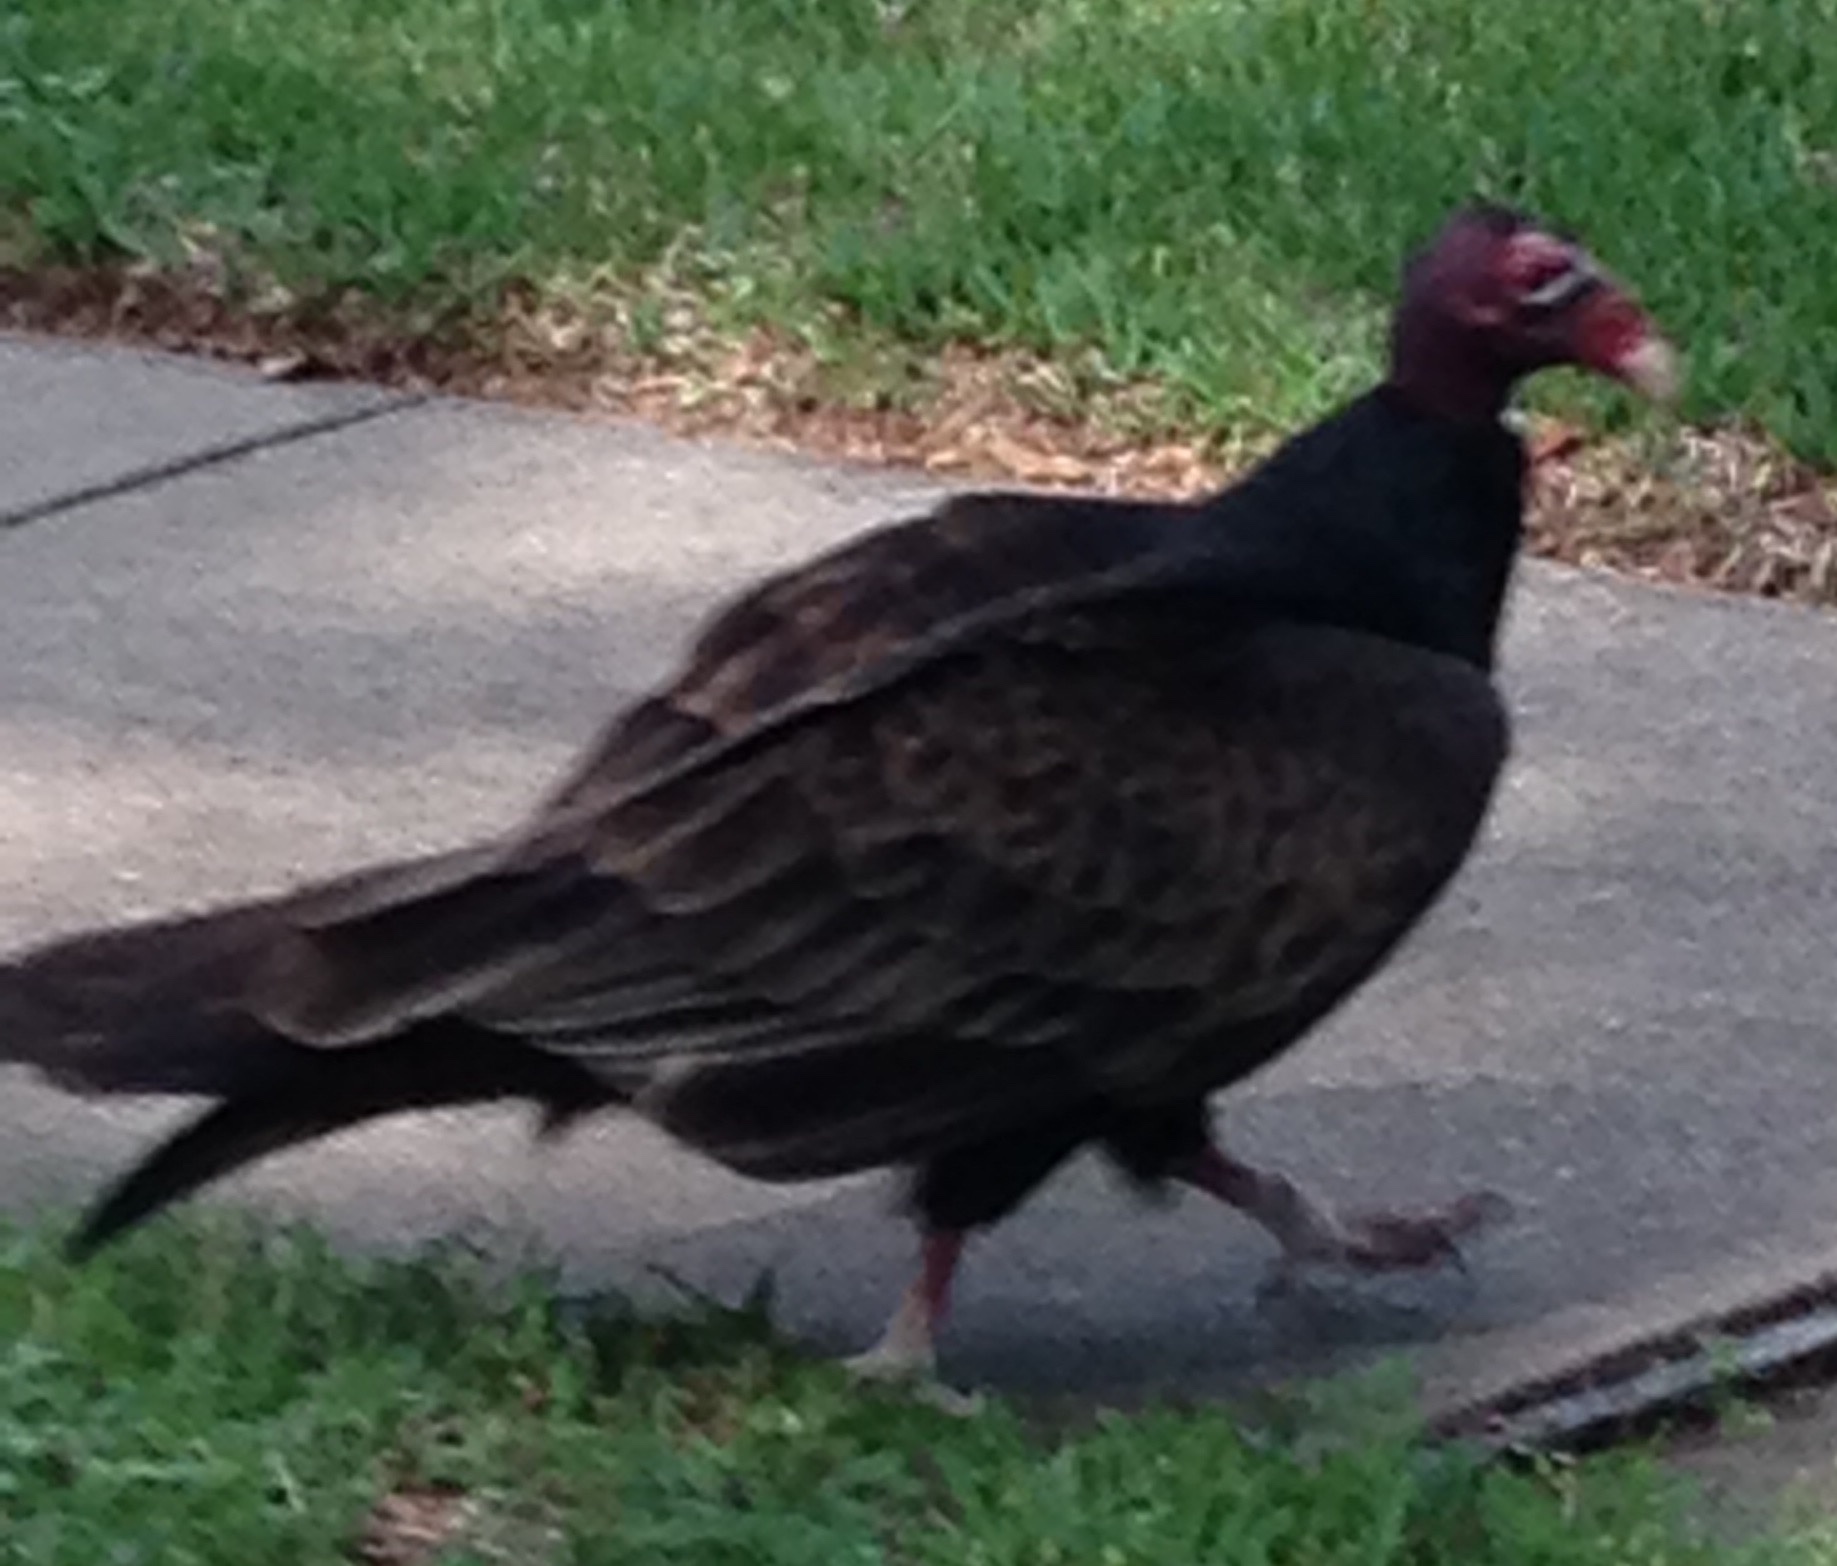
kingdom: Animalia
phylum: Chordata
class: Aves
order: Accipitriformes
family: Cathartidae
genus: Cathartes
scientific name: Cathartes aura
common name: Turkey vulture
